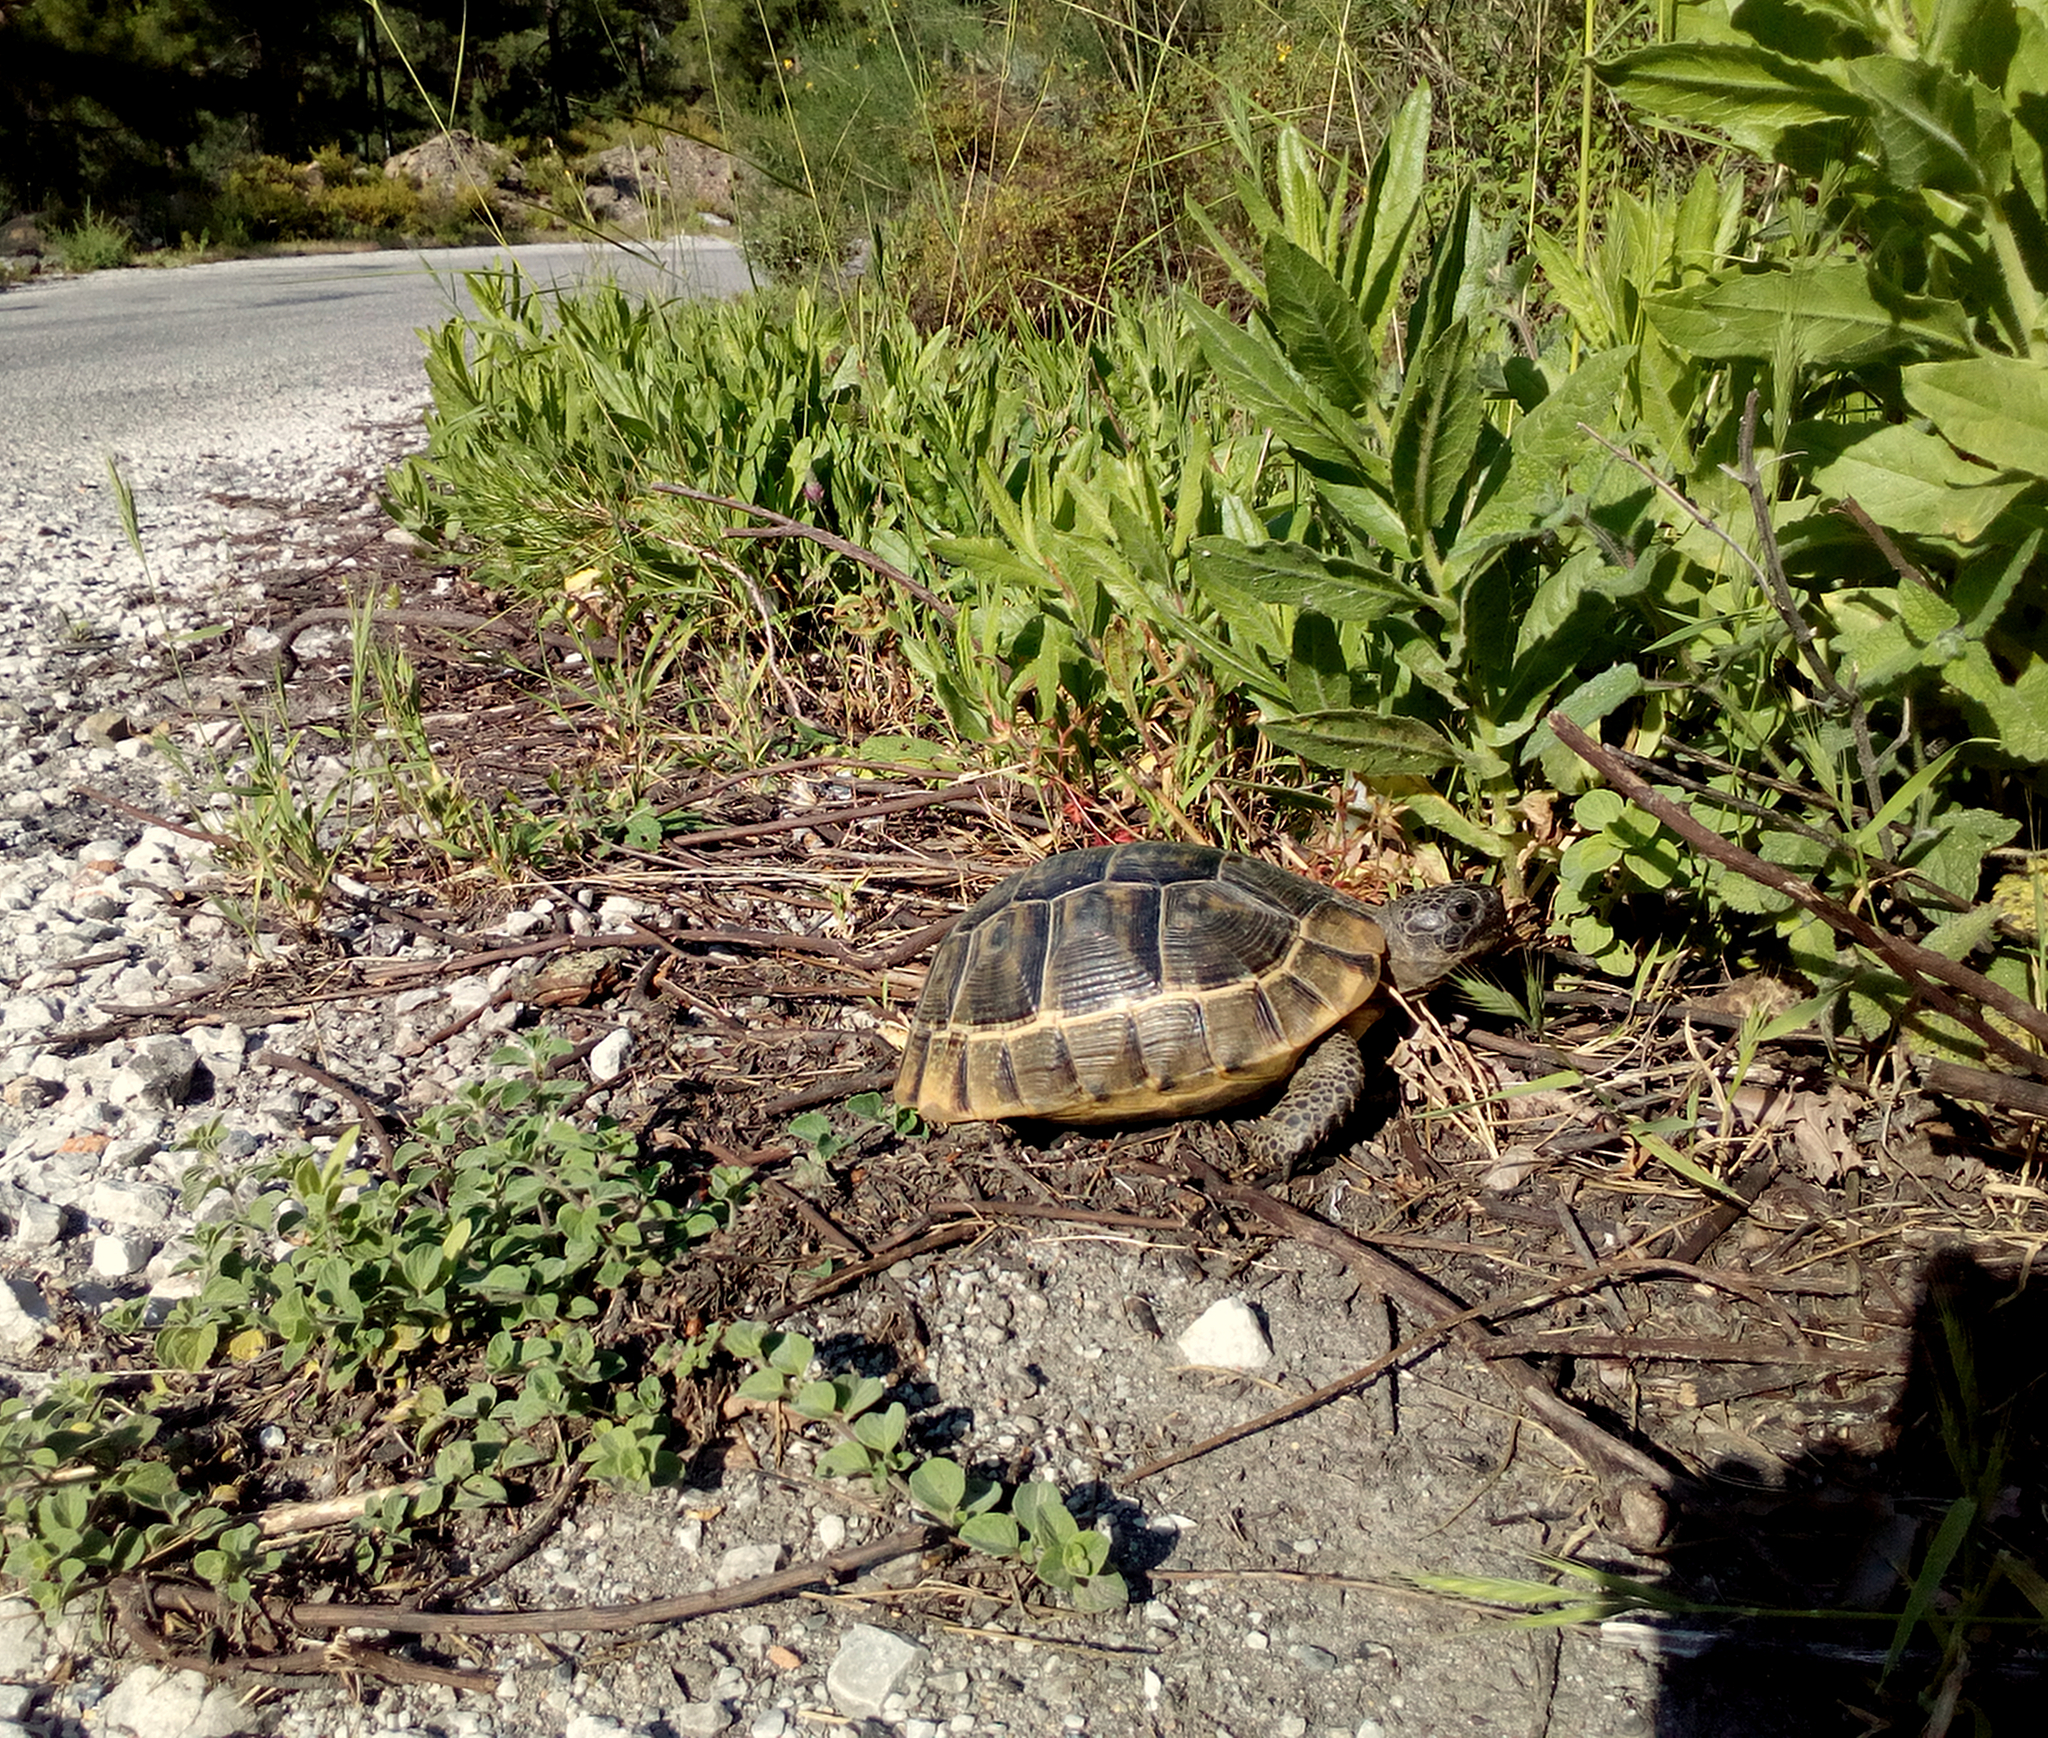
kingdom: Animalia
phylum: Chordata
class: Testudines
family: Testudinidae
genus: Testudo
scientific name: Testudo graeca
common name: Common tortoise
